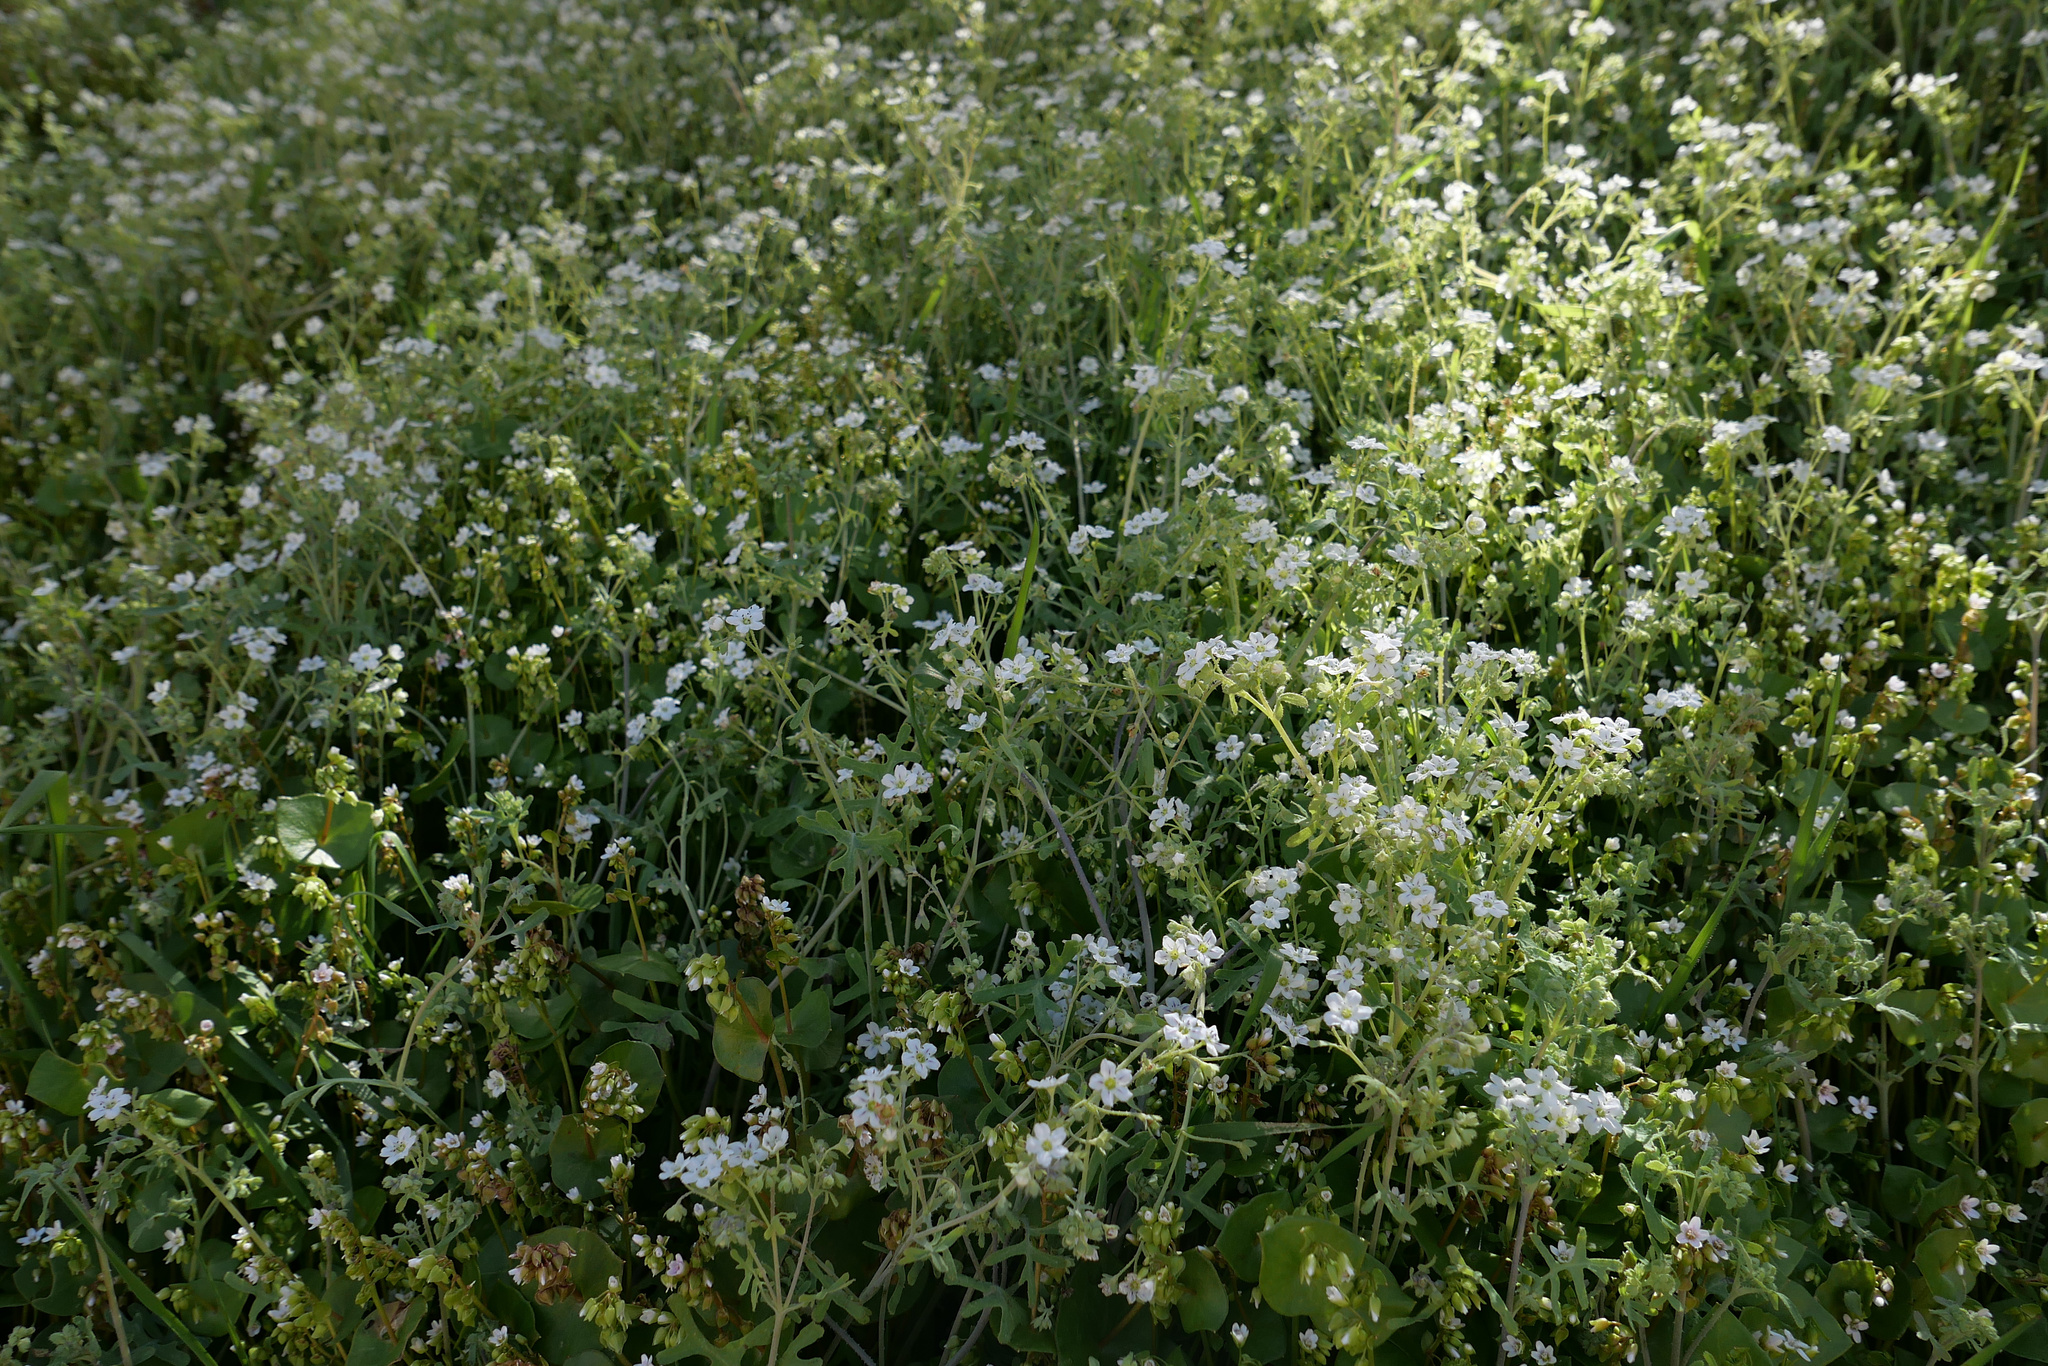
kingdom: Plantae
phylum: Tracheophyta
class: Magnoliopsida
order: Boraginales
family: Hydrophyllaceae
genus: Pholistoma
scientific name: Pholistoma membranaceum
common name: White fiesta-flower
